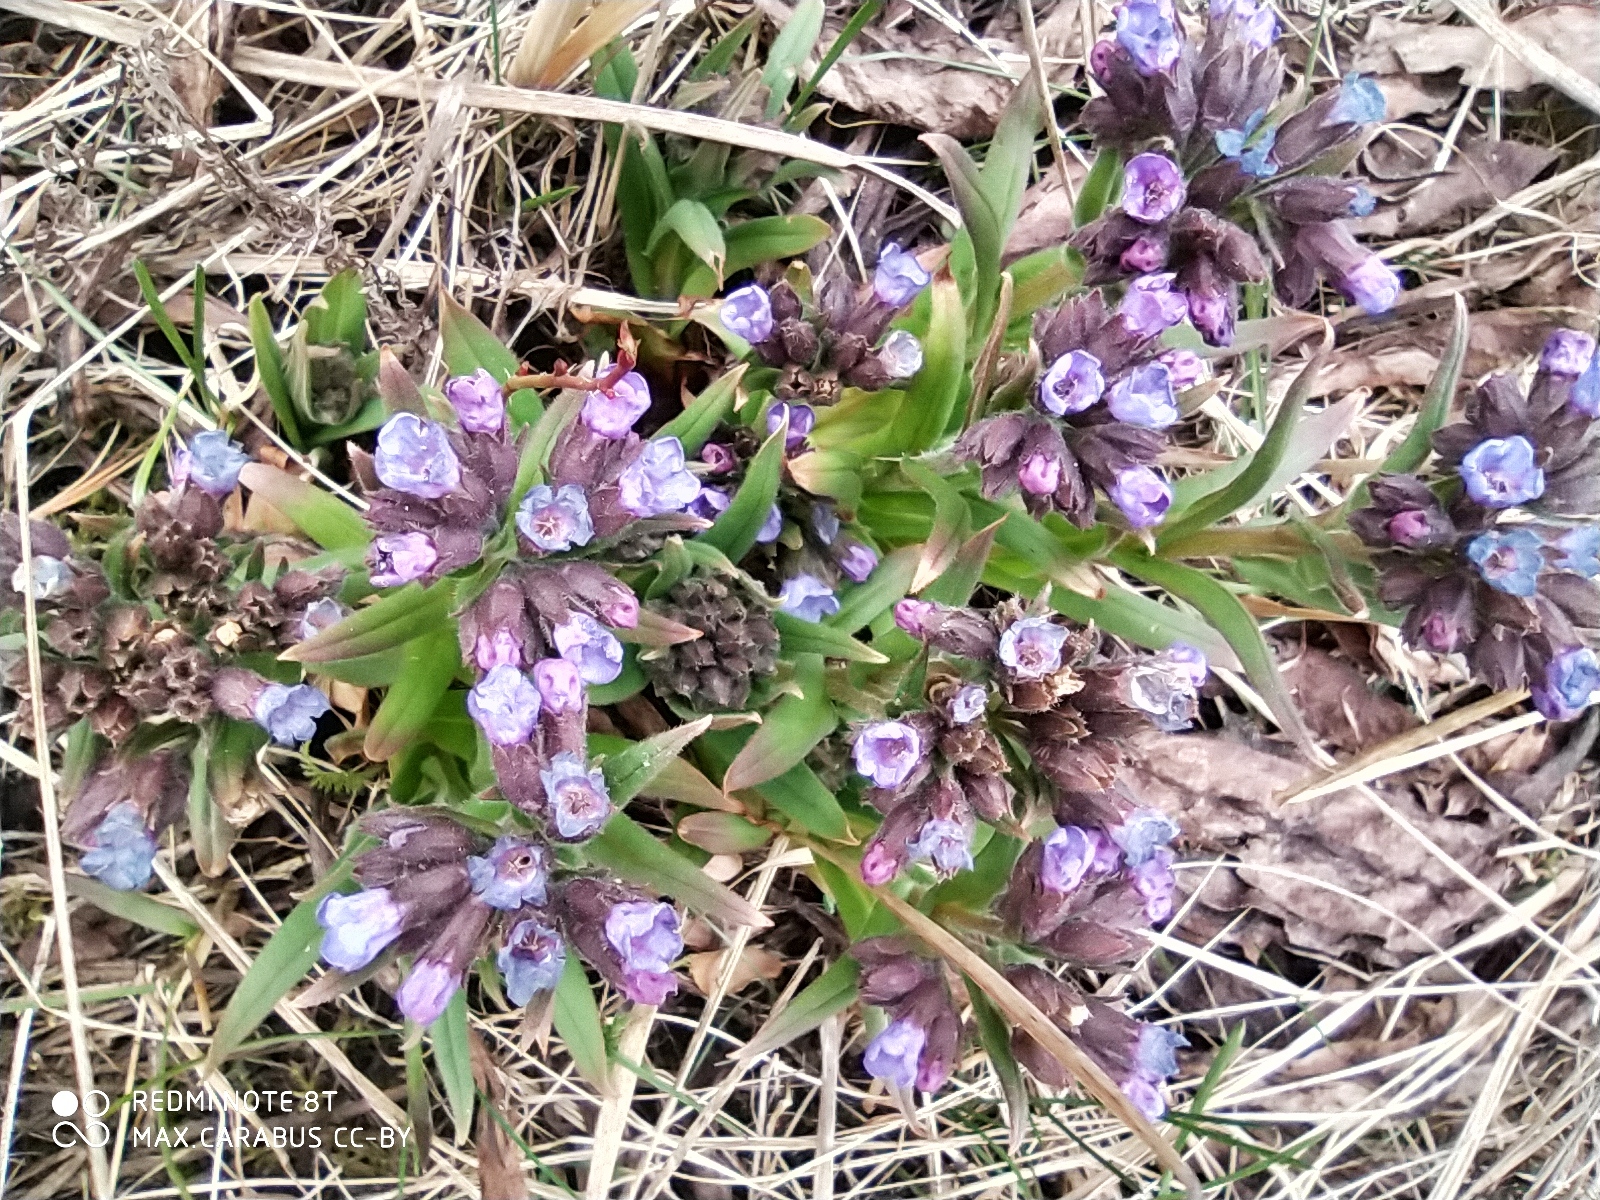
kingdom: Plantae
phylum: Tracheophyta
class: Magnoliopsida
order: Boraginales
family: Boraginaceae
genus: Pulmonaria
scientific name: Pulmonaria angustifolia
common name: Blue cowslip
